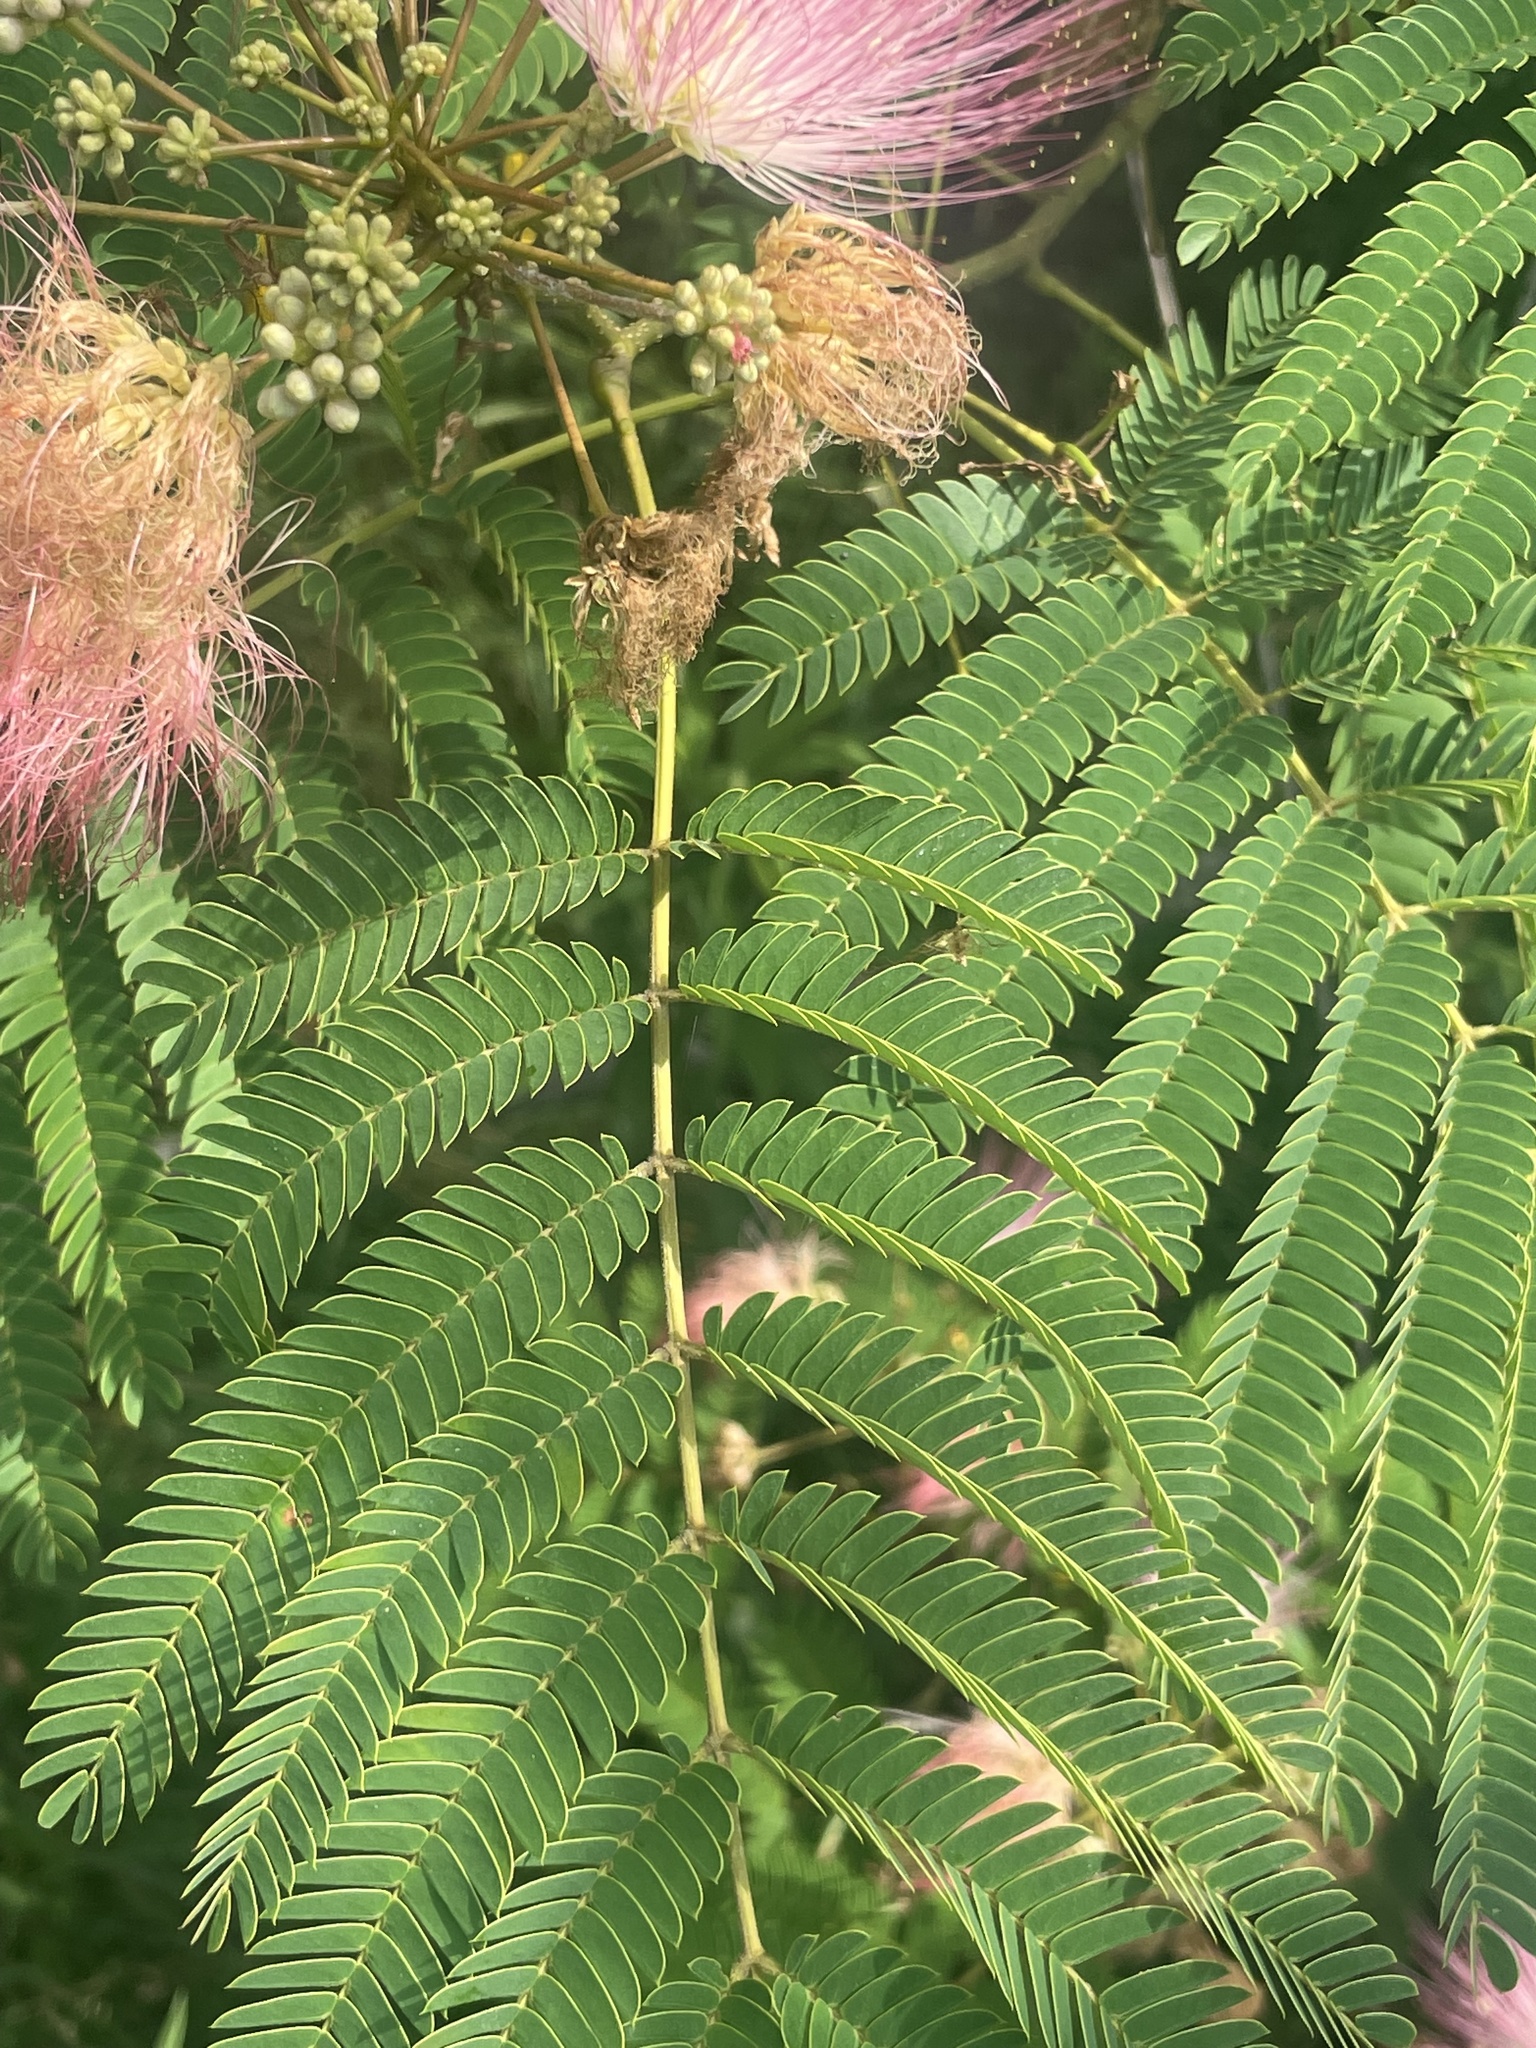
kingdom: Plantae
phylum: Tracheophyta
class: Magnoliopsida
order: Fabales
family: Fabaceae
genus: Albizia
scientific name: Albizia julibrissin
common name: Silktree
